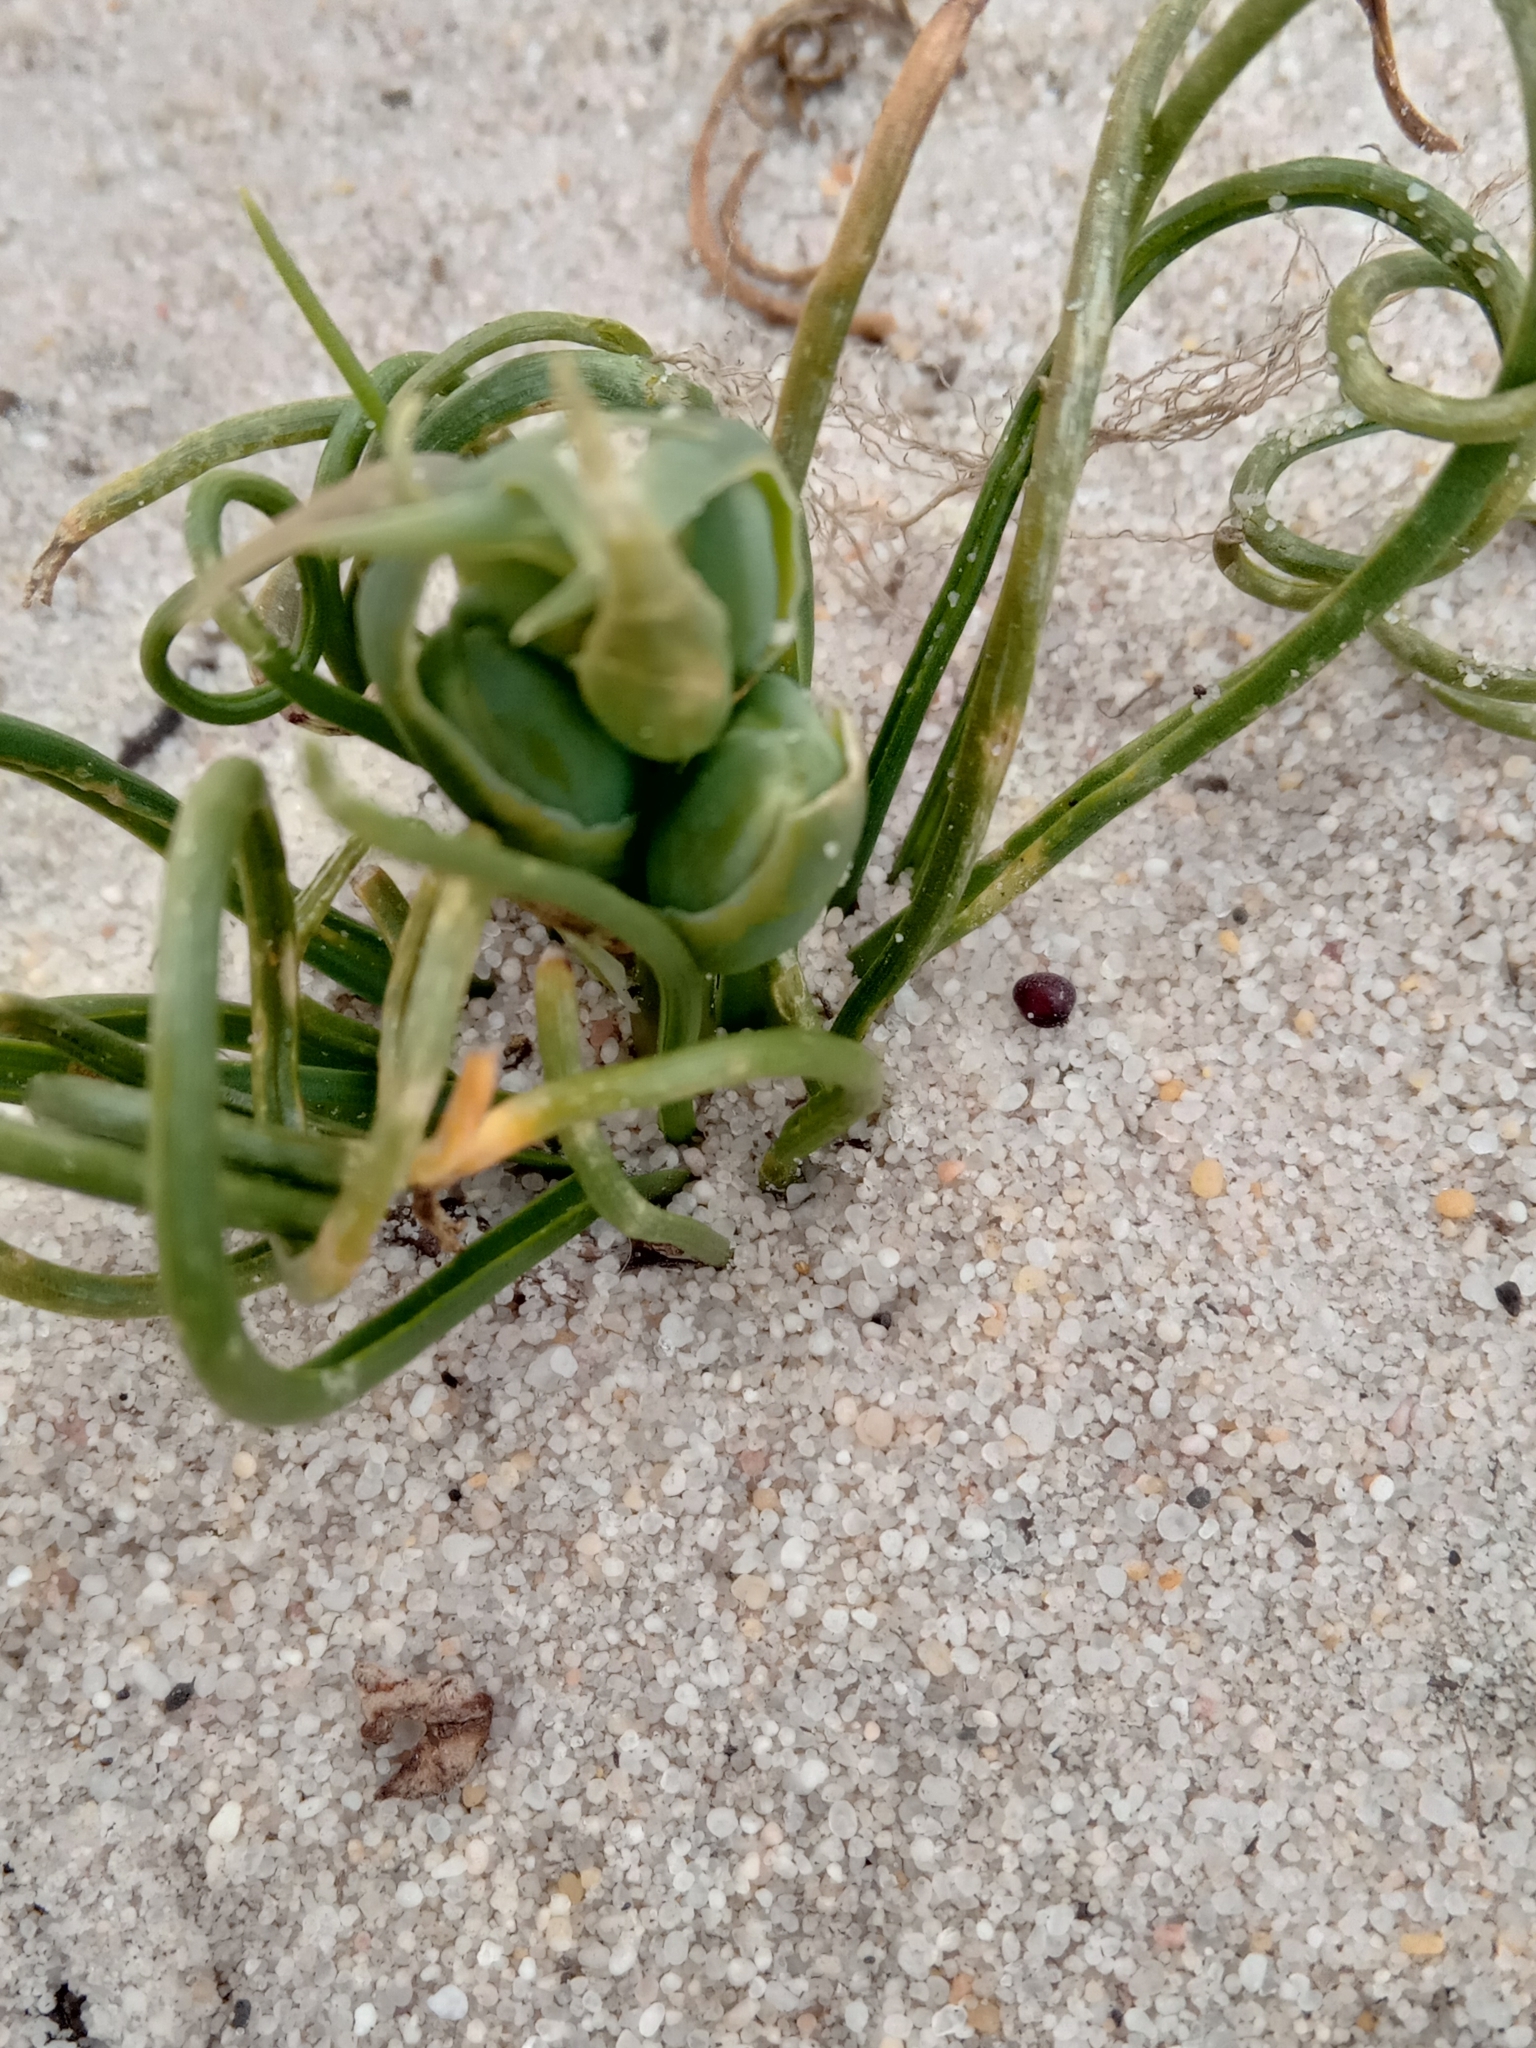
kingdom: Plantae
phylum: Tracheophyta
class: Liliopsida
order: Asparagales
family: Asparagaceae
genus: Albuca
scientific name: Albuca spiralis
